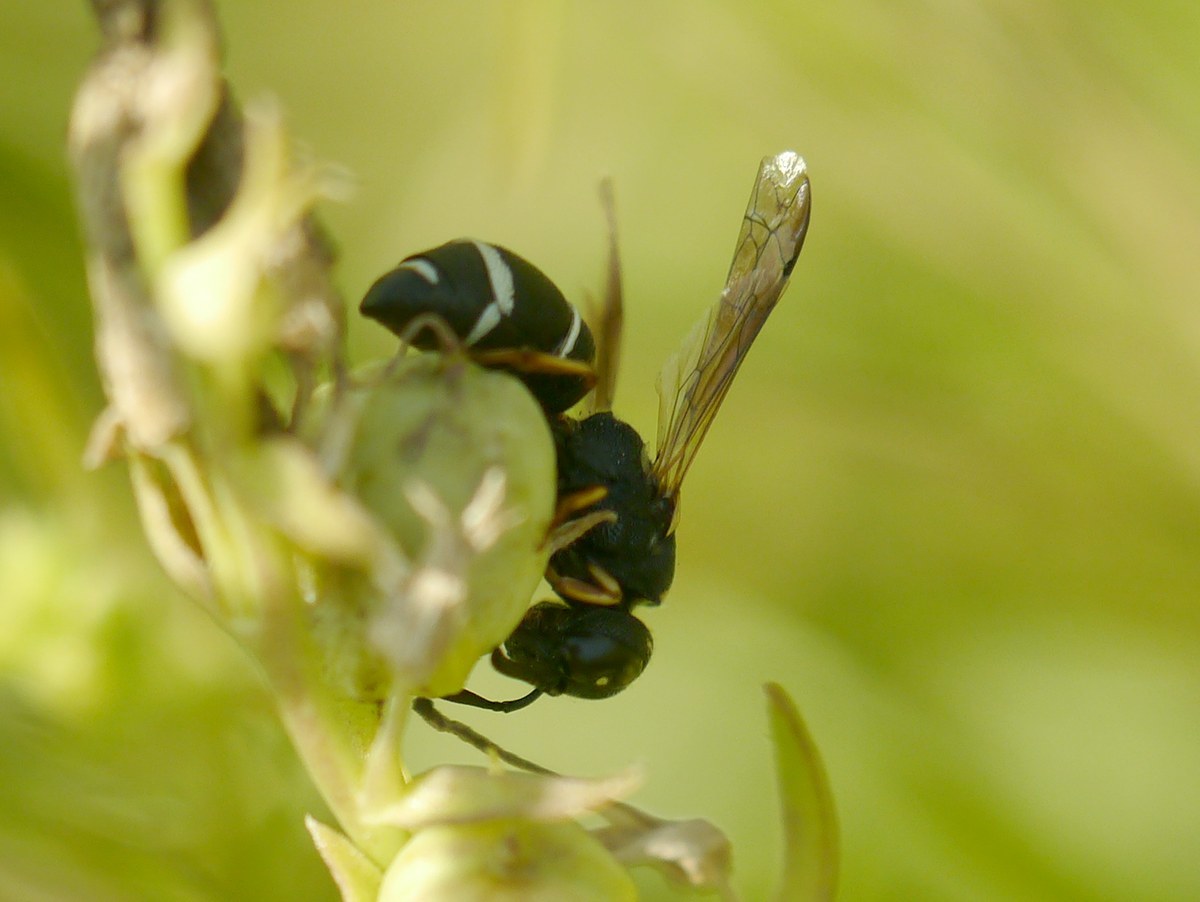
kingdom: Animalia
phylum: Arthropoda
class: Insecta
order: Hymenoptera
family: Eumenidae
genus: Alastor
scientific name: Alastor mocsaryi
